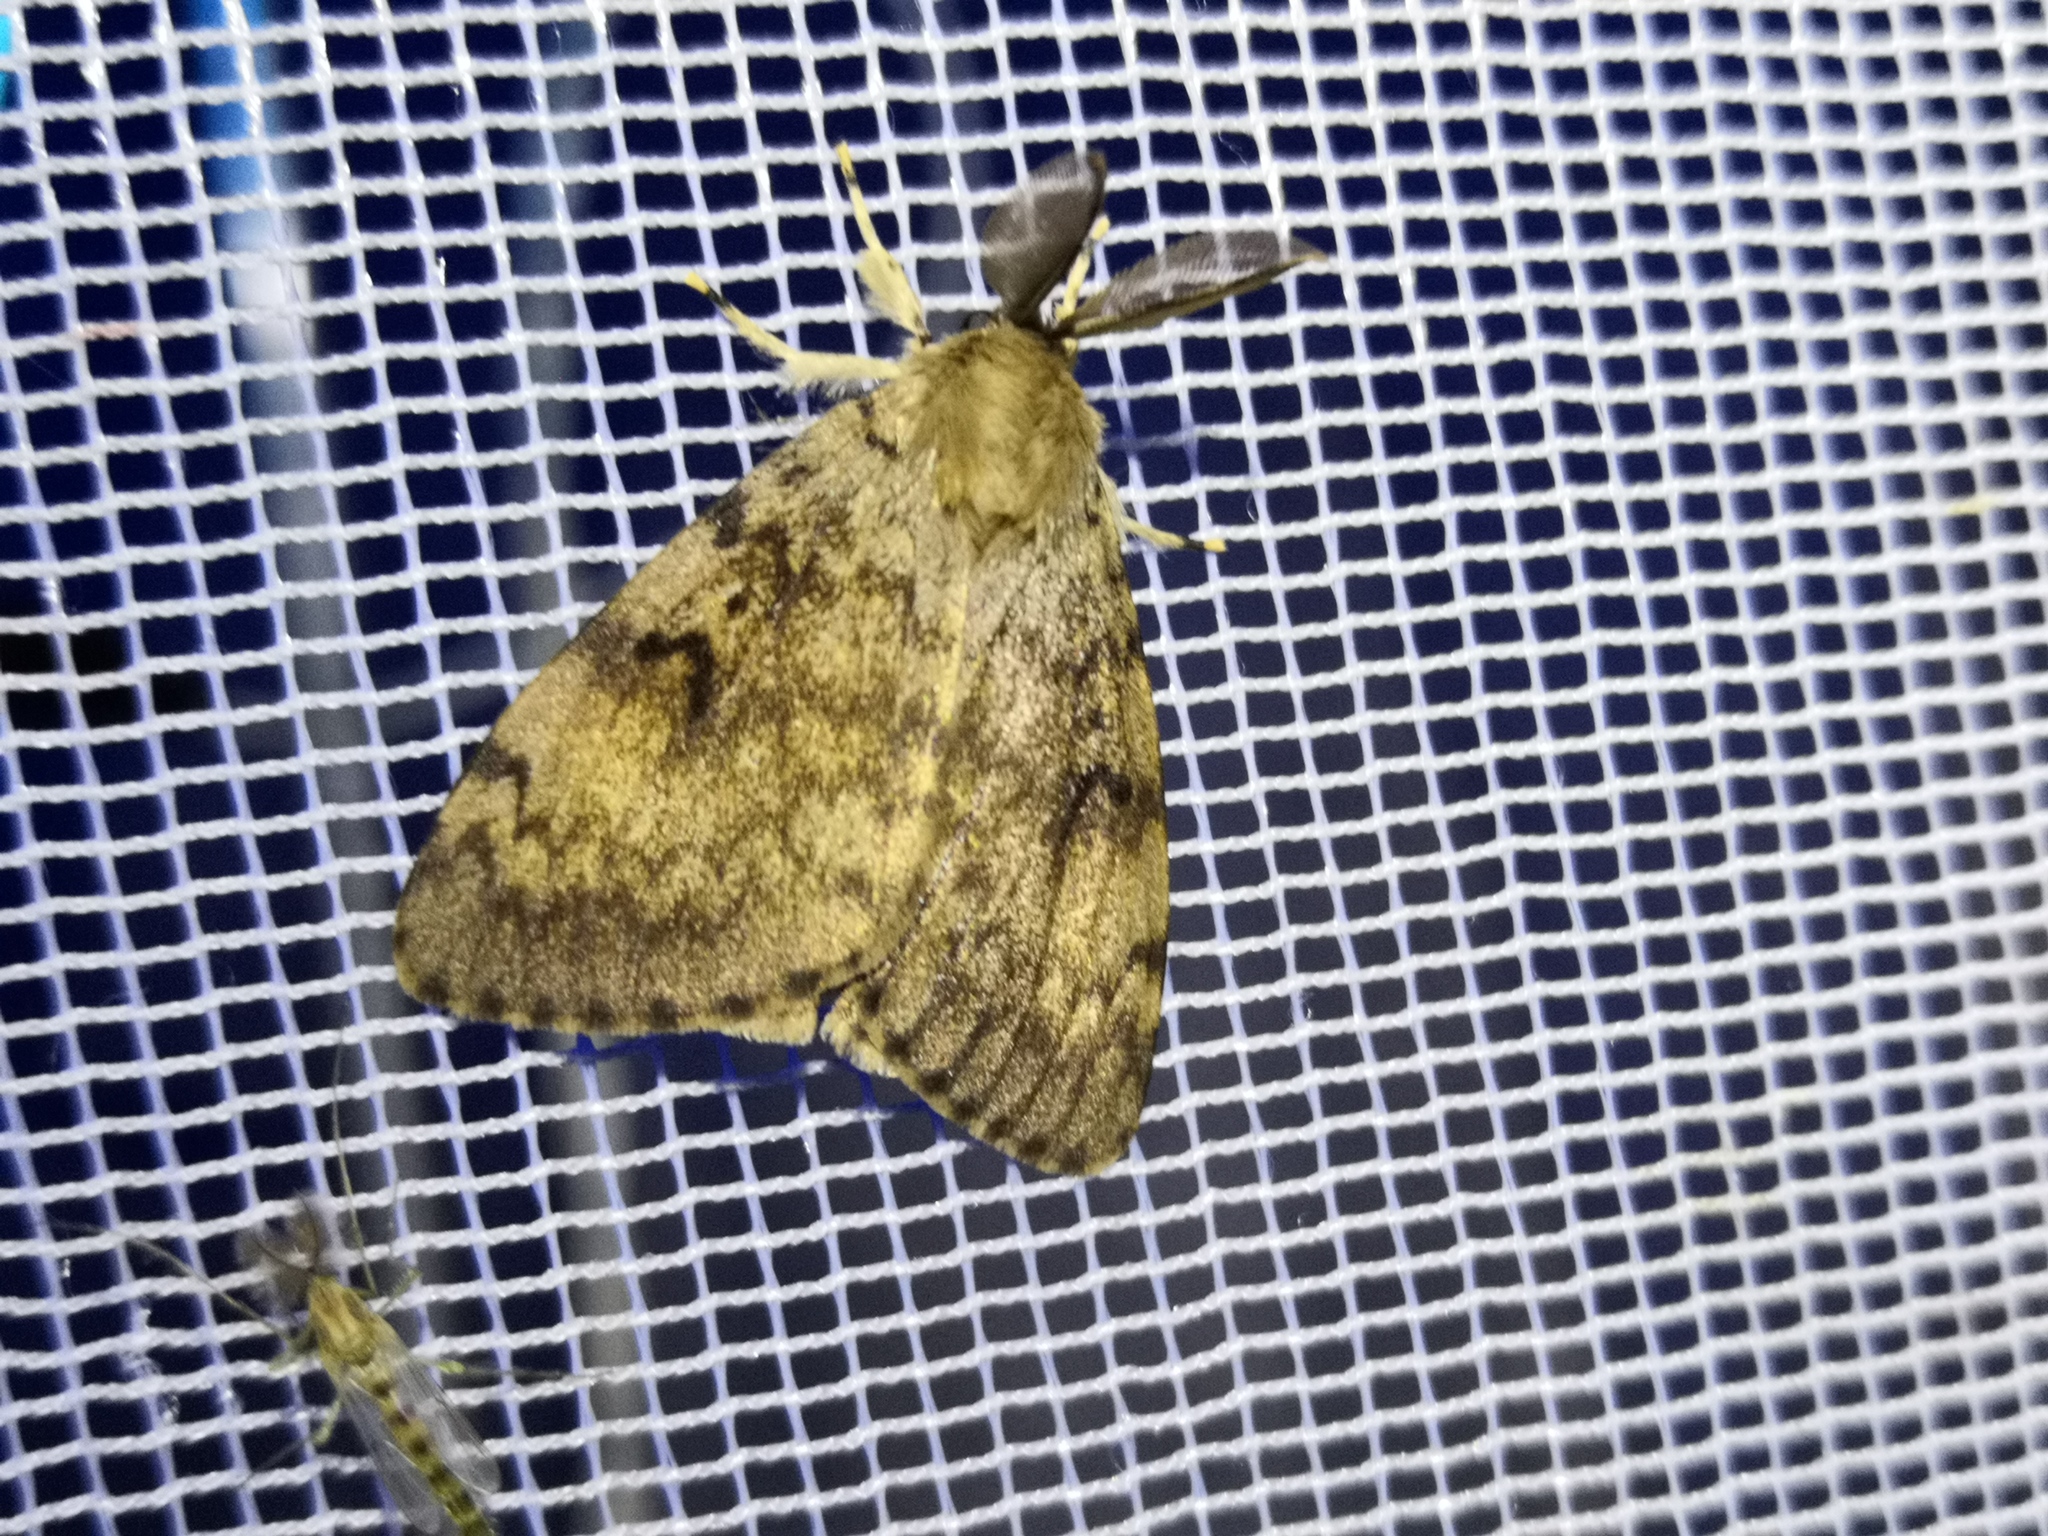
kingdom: Animalia
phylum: Arthropoda
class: Insecta
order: Lepidoptera
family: Erebidae
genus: Lymantria
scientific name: Lymantria dispar
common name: Gypsy moth
